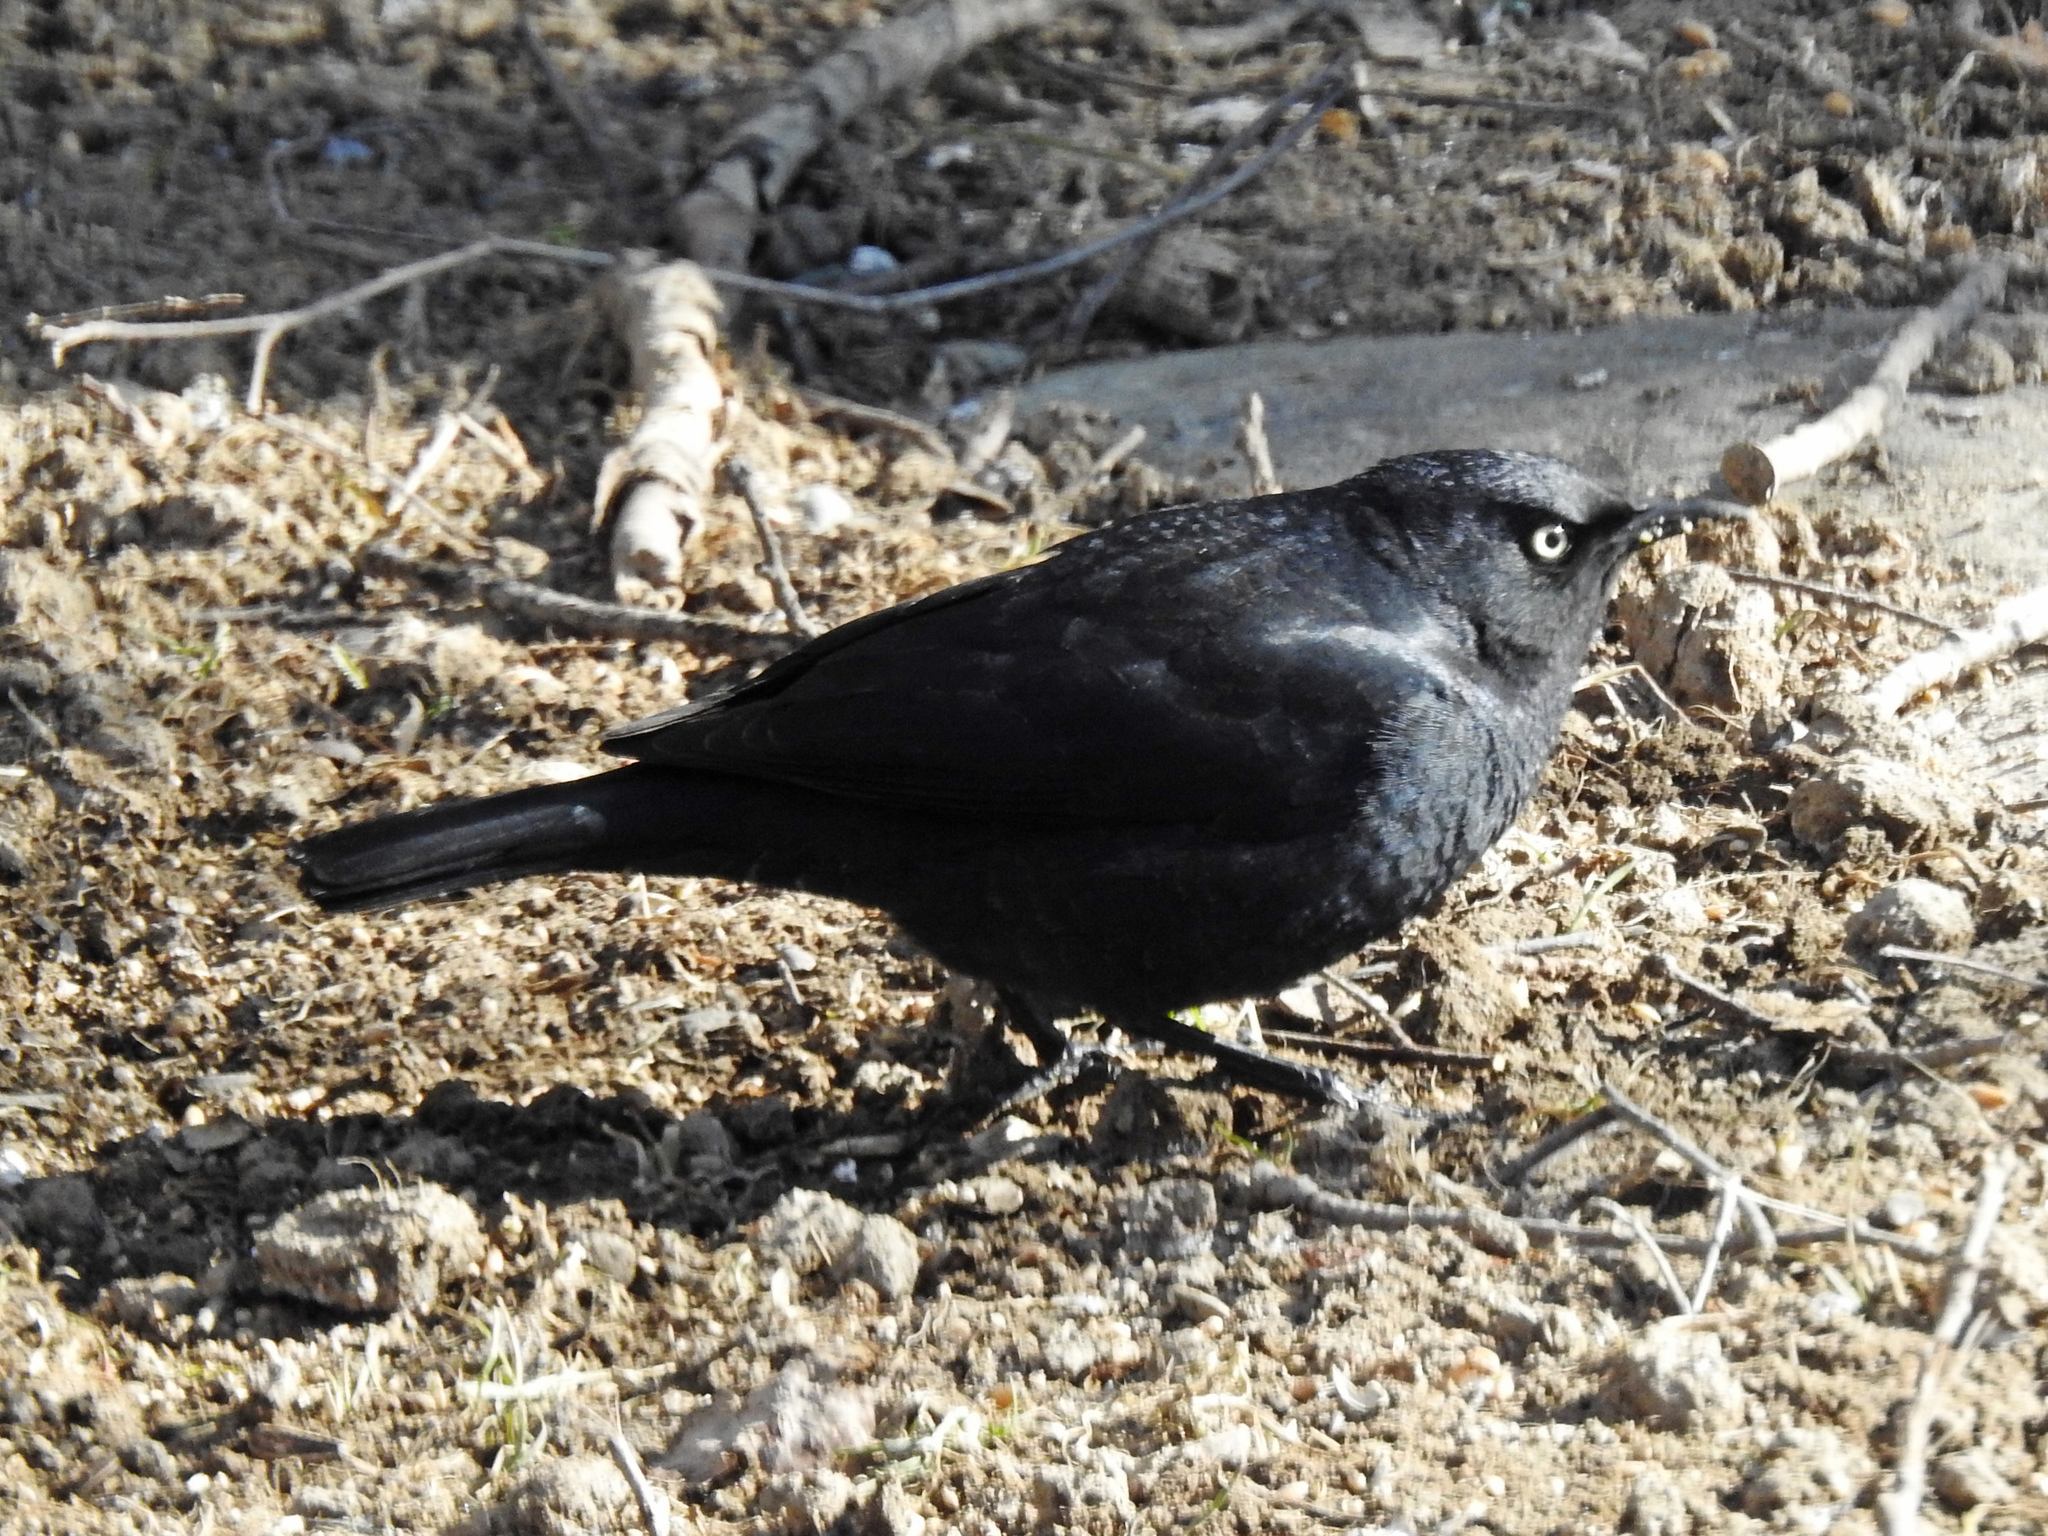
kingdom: Animalia
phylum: Chordata
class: Aves
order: Passeriformes
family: Icteridae
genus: Euphagus
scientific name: Euphagus carolinus
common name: Rusty blackbird
